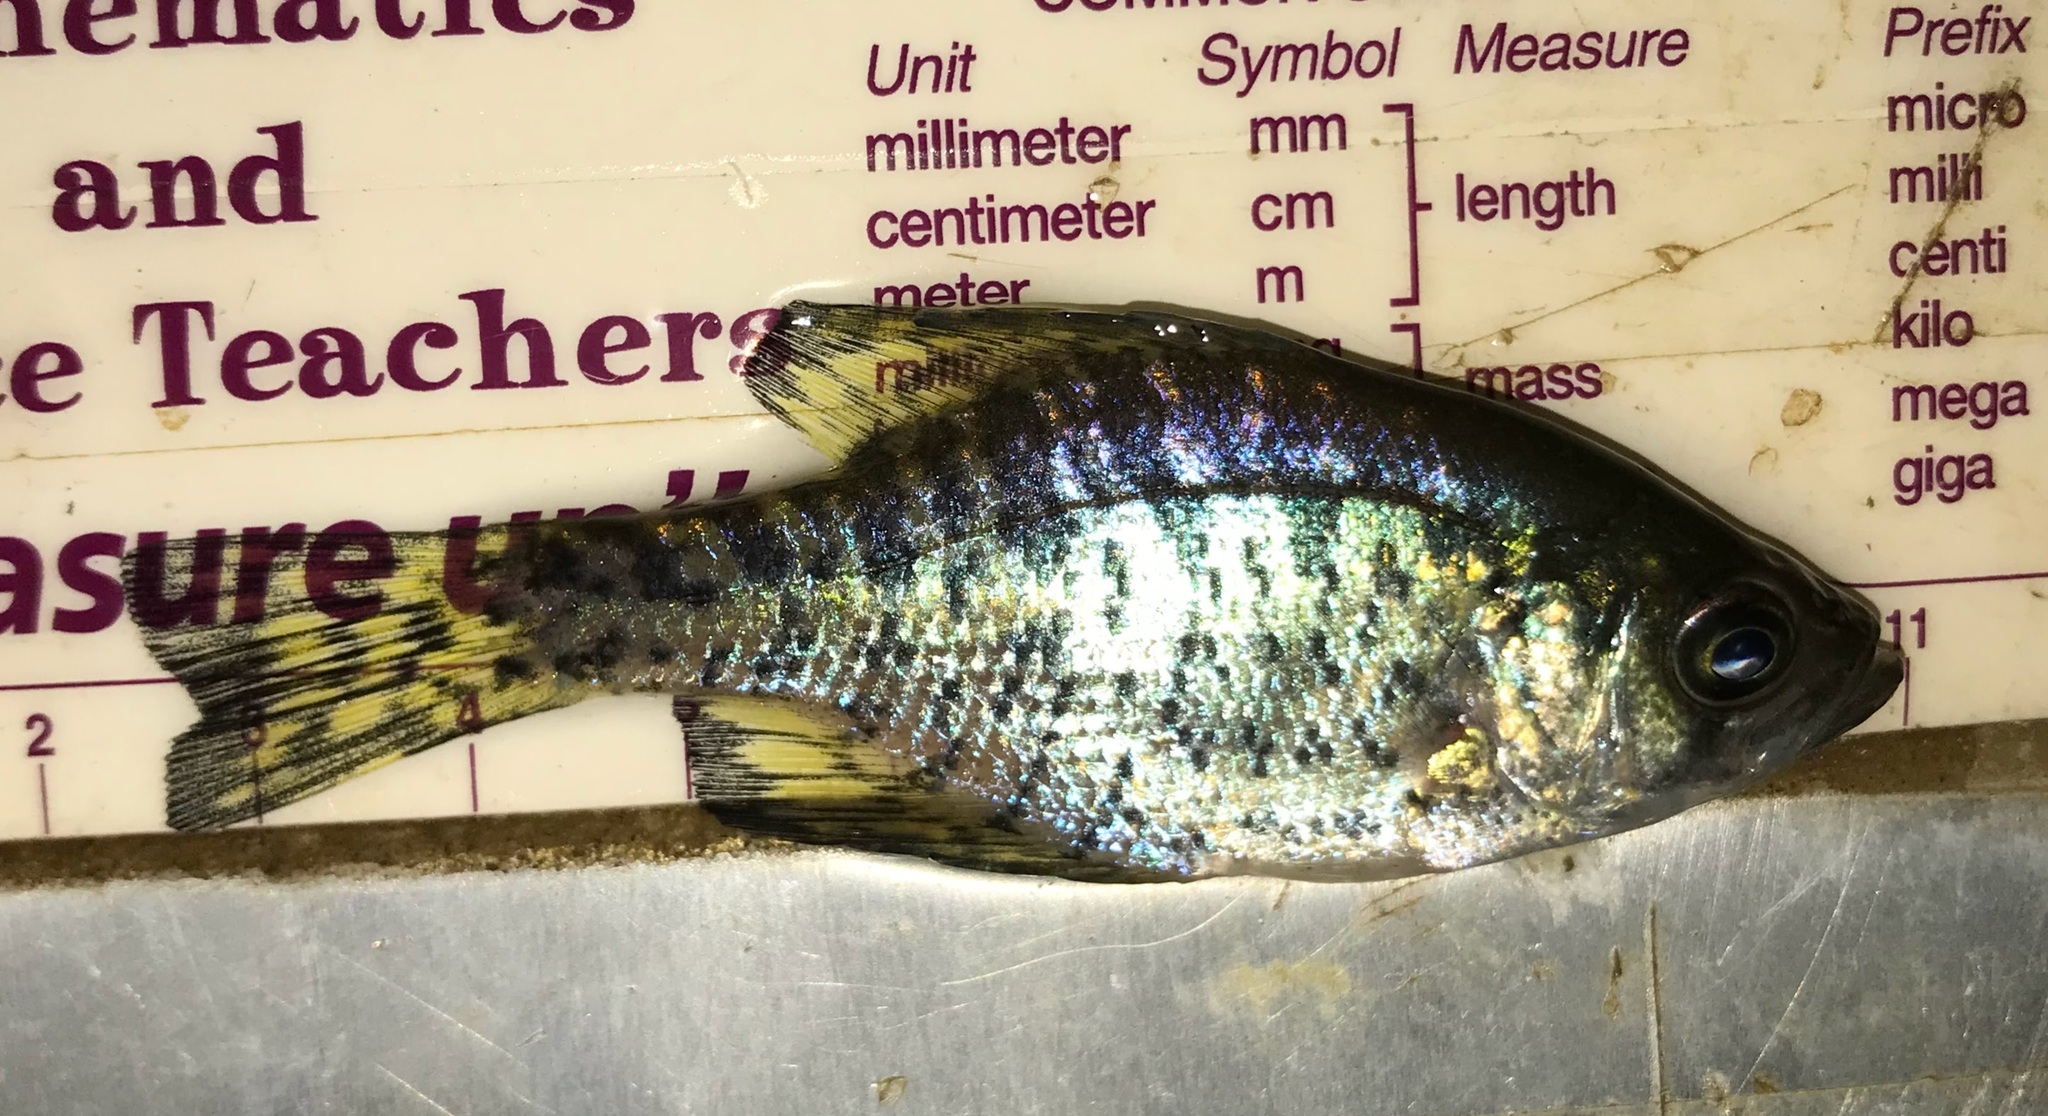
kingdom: Animalia
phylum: Chordata
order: Perciformes
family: Centrarchidae
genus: Pomoxis
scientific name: Pomoxis nigromaculatus
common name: Black crappie
